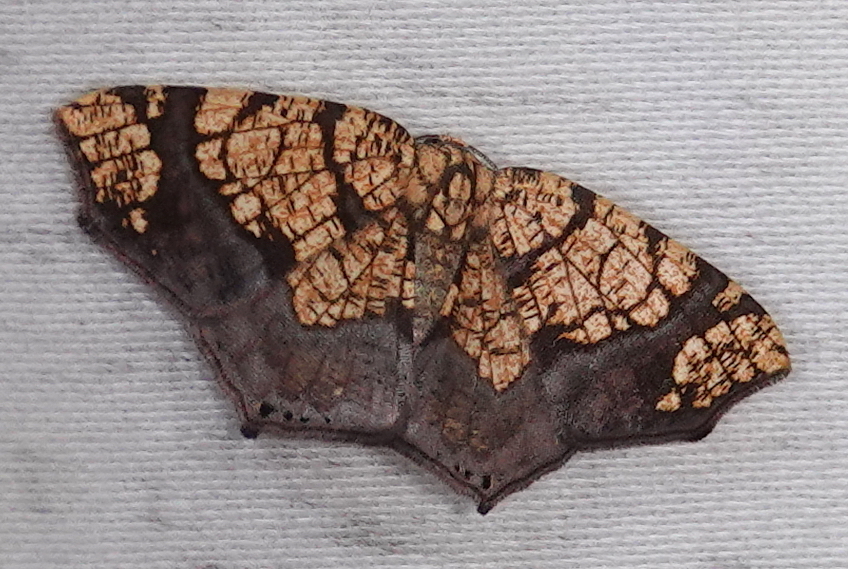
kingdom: Animalia
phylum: Arthropoda
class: Insecta
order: Lepidoptera
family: Geometridae
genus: Nematocampa
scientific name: Nematocampa reticulata
